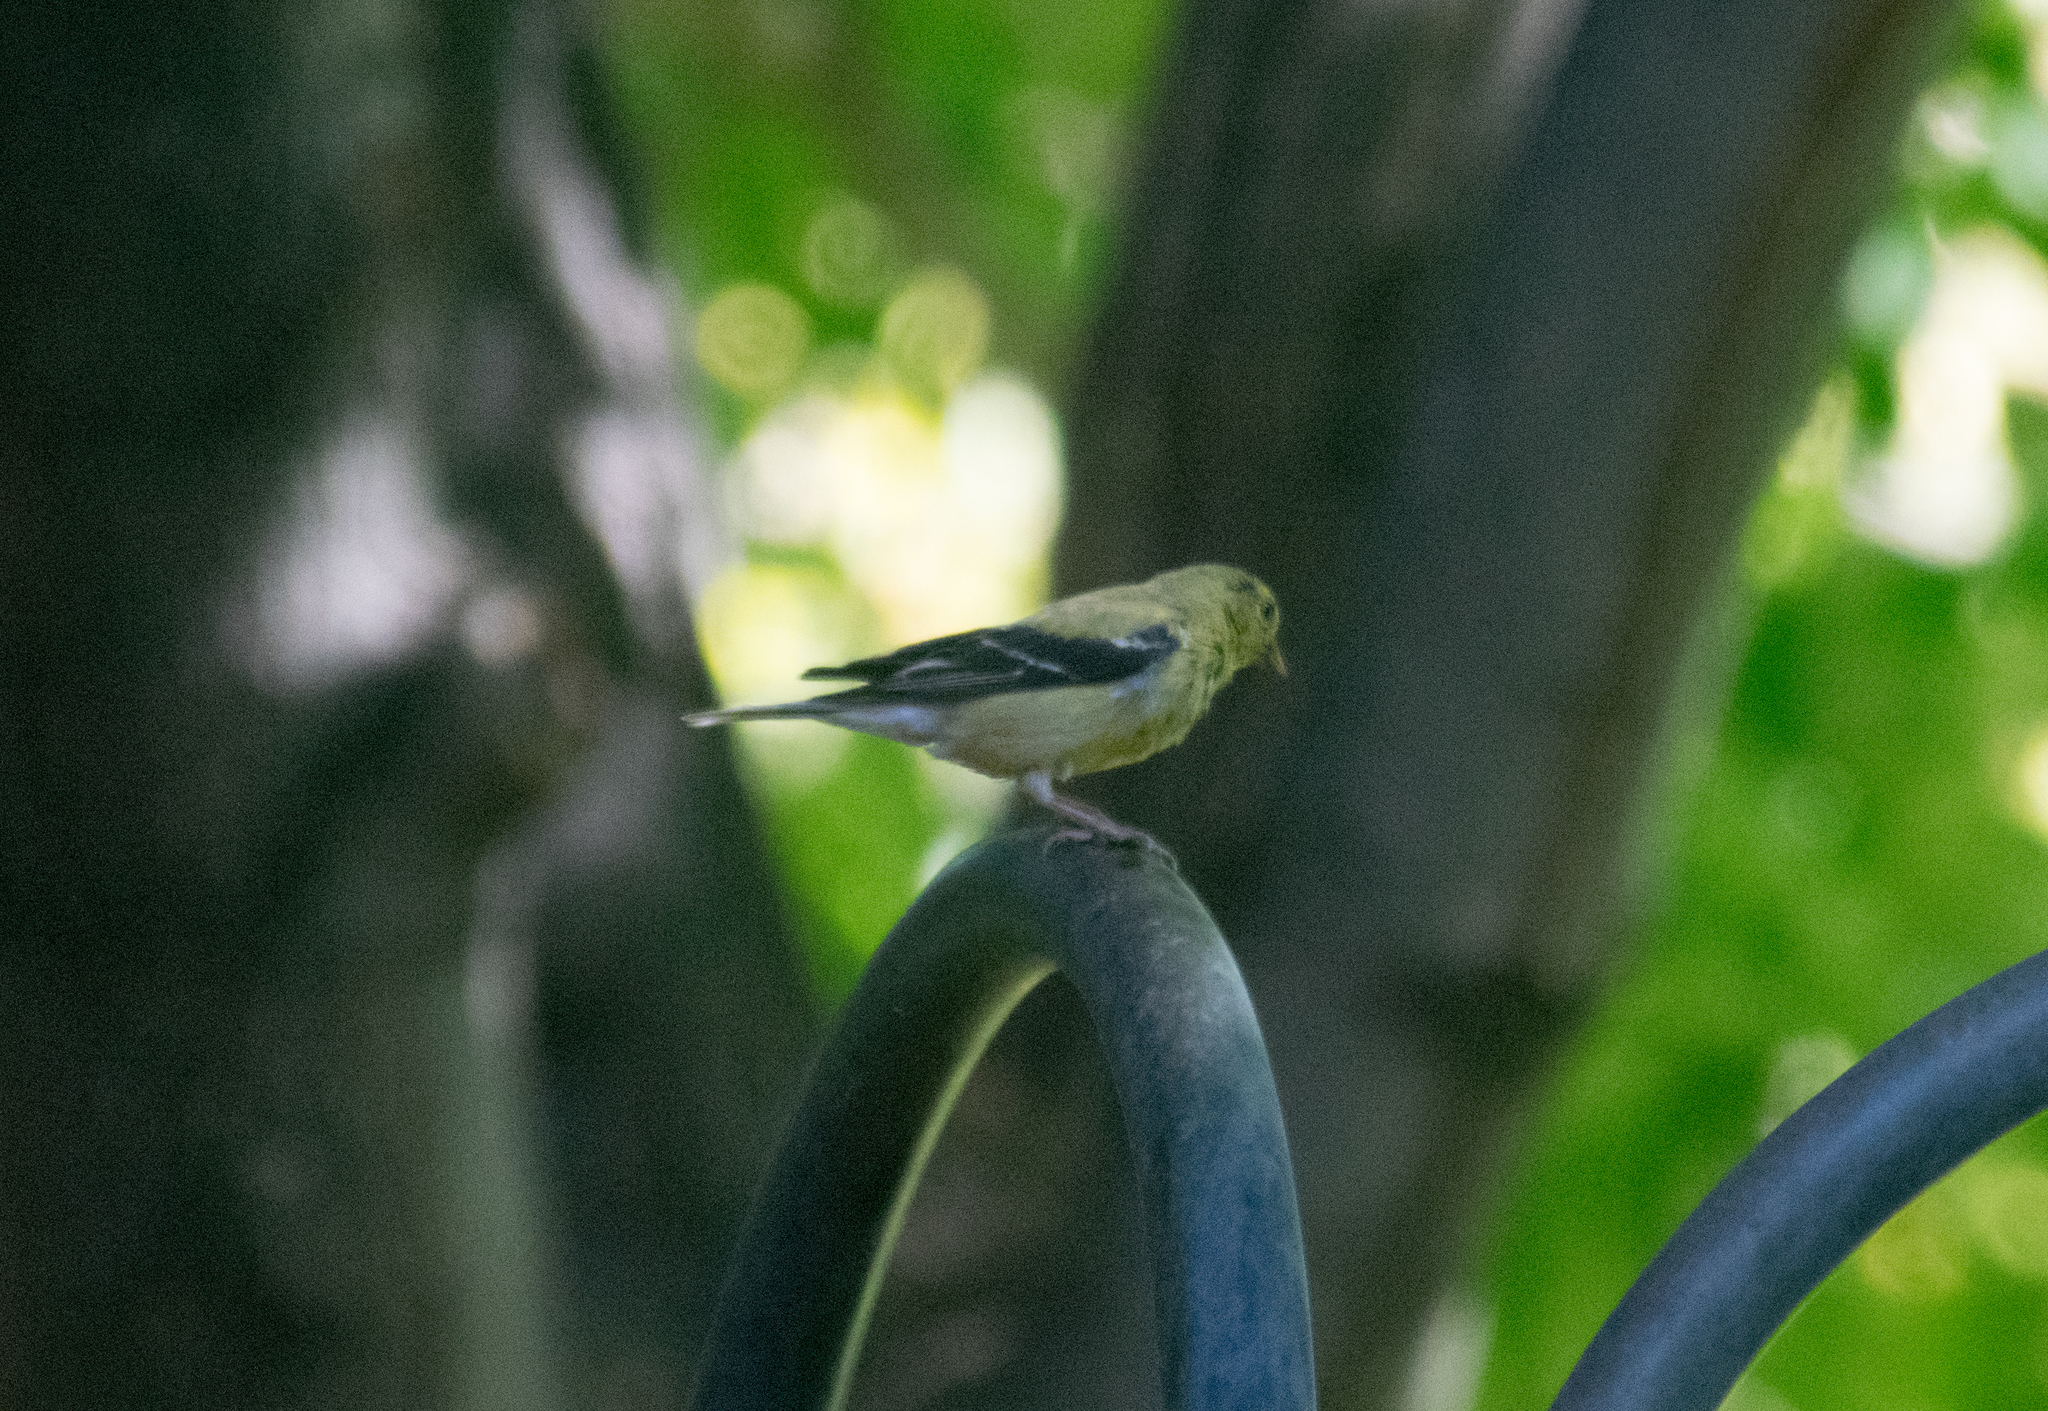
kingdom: Animalia
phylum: Chordata
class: Aves
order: Passeriformes
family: Fringillidae
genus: Spinus
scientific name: Spinus tristis
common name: American goldfinch
